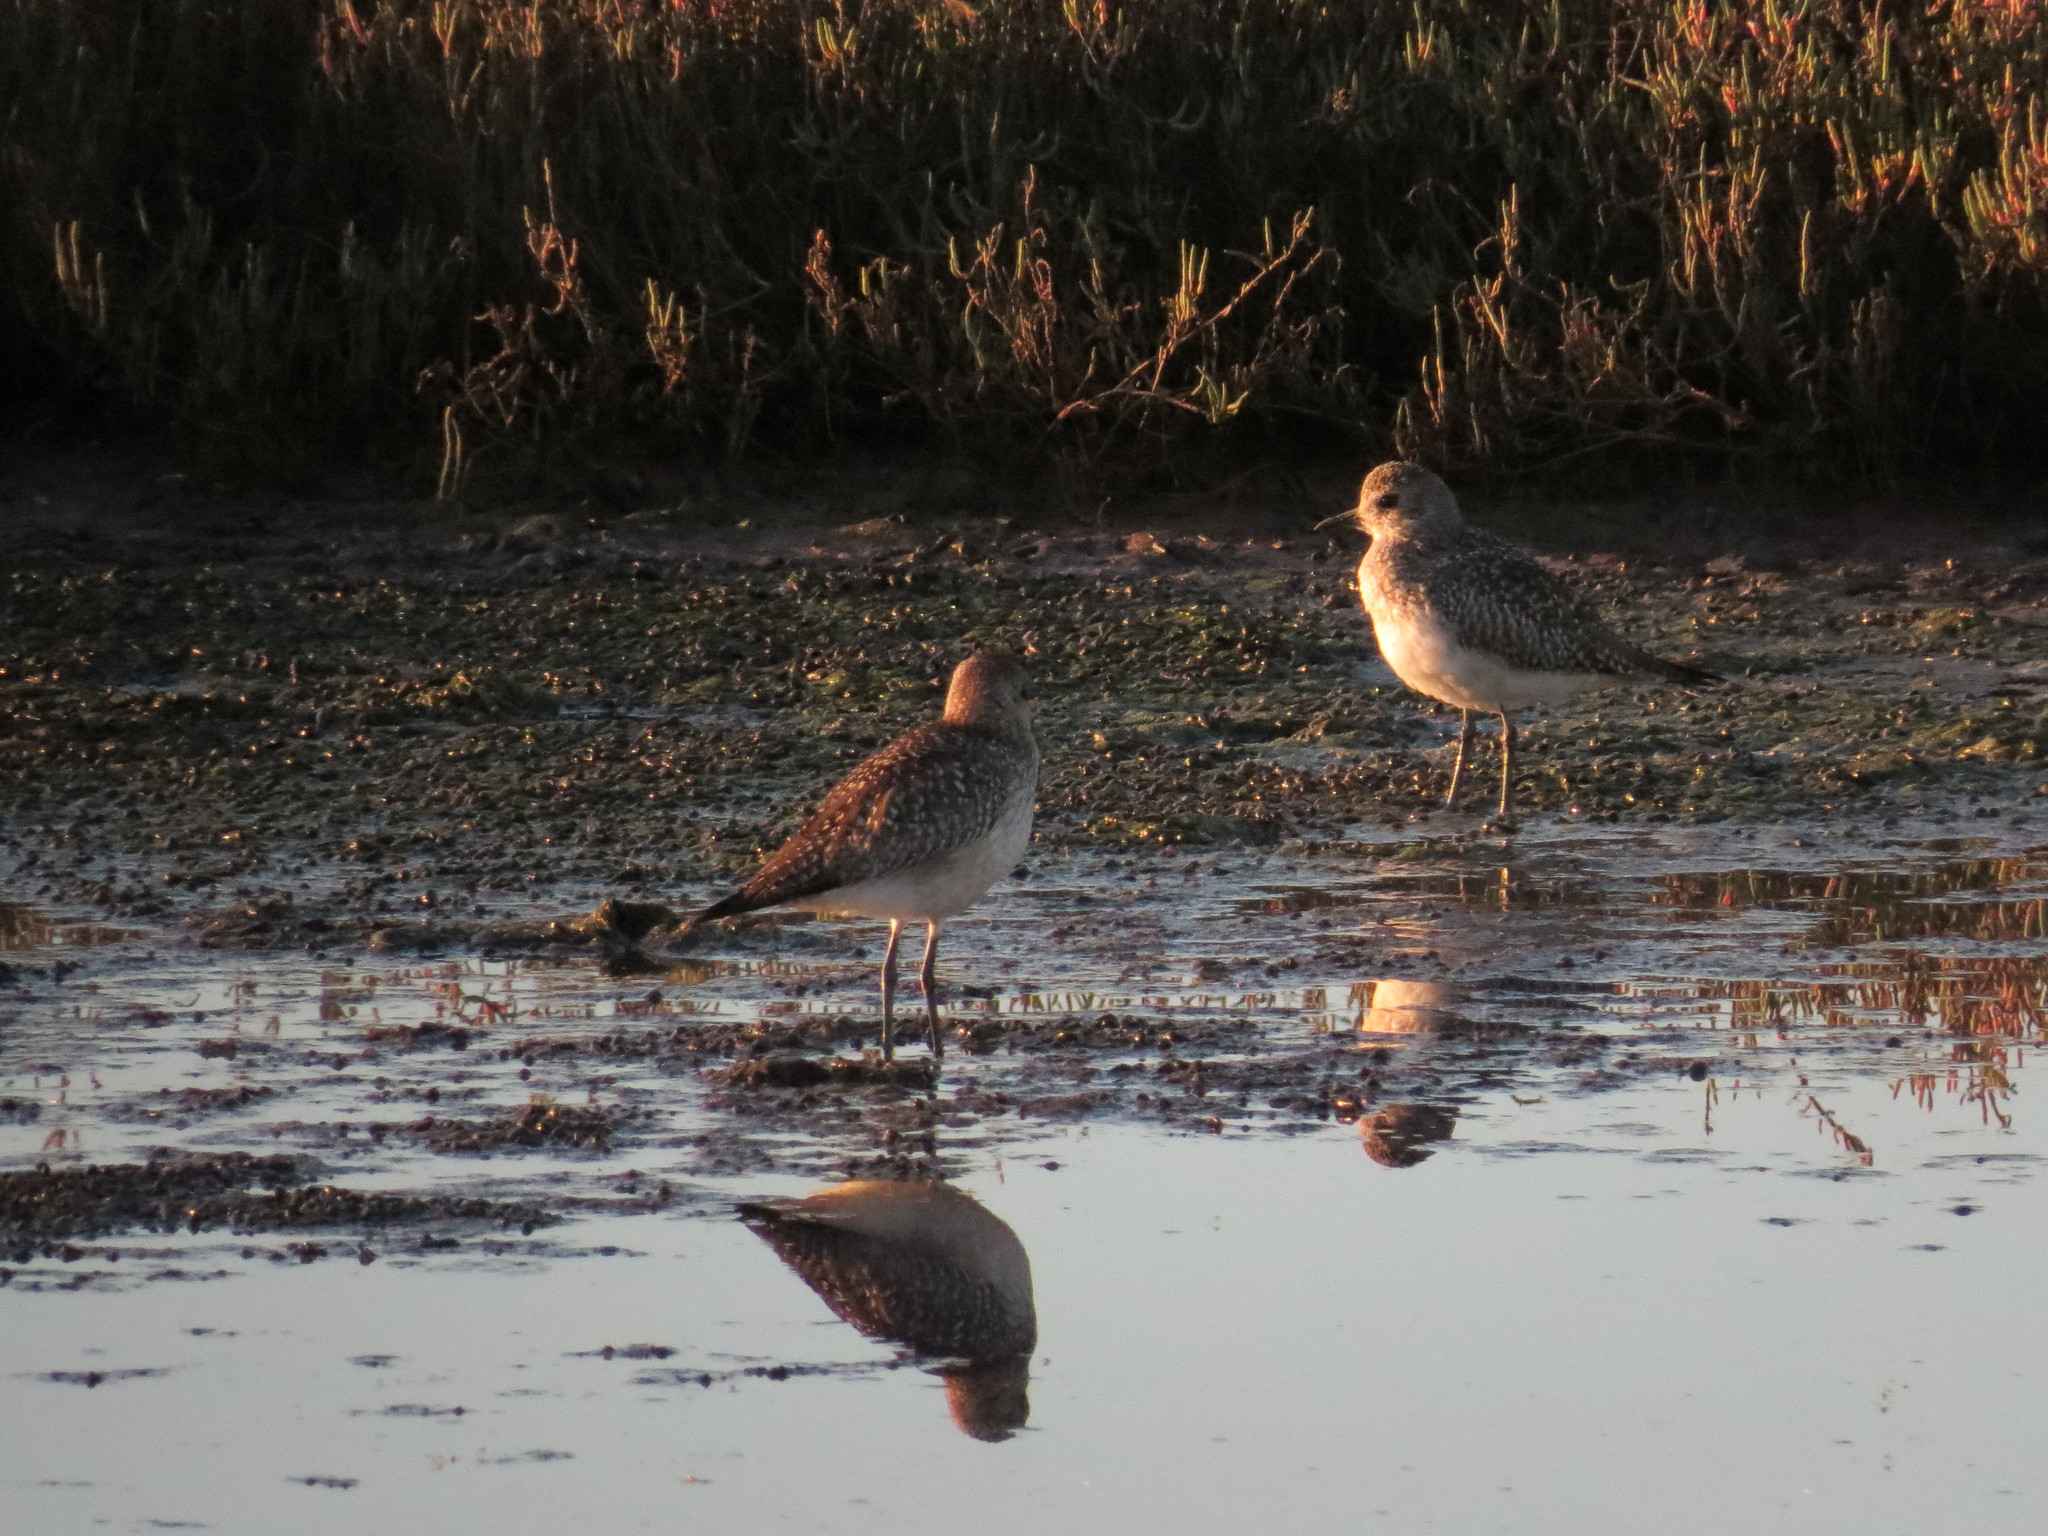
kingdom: Animalia
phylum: Chordata
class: Aves
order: Charadriiformes
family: Charadriidae
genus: Pluvialis
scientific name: Pluvialis squatarola
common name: Grey plover
